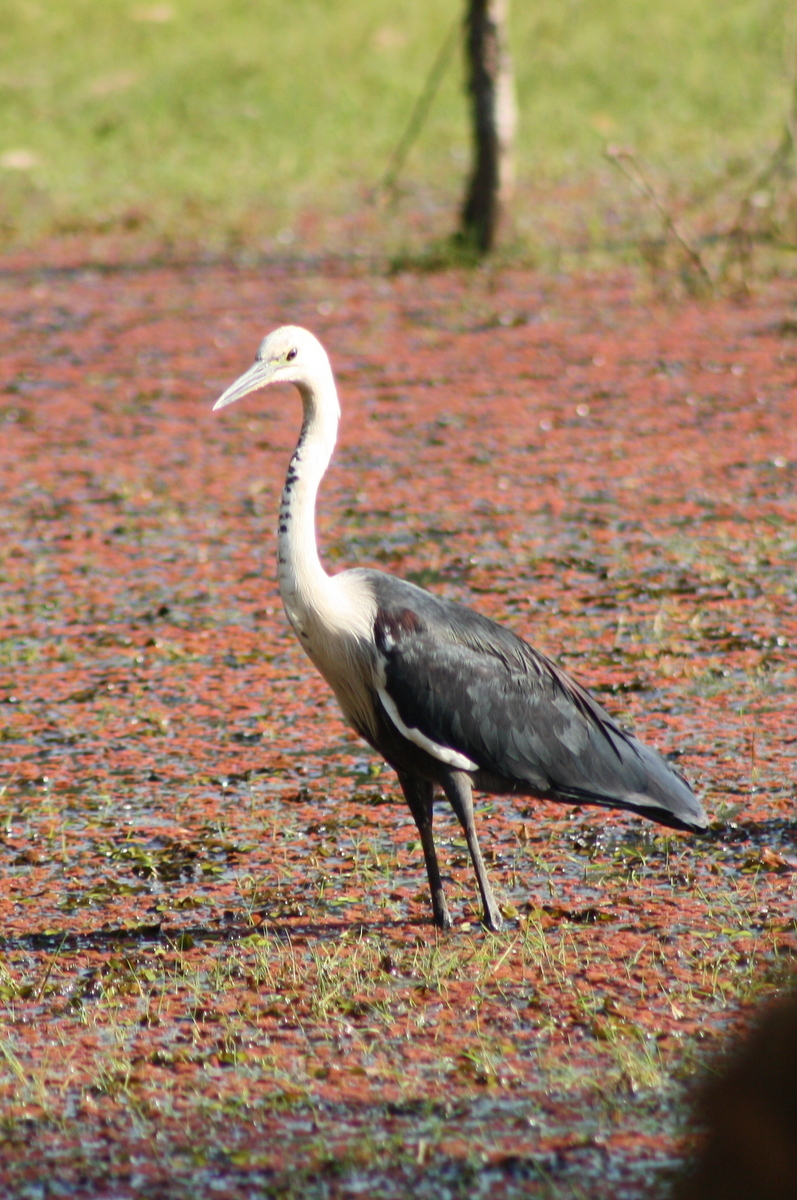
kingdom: Animalia
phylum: Chordata
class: Aves
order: Pelecaniformes
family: Ardeidae
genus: Ardea
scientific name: Ardea pacifica
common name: White-necked heron
